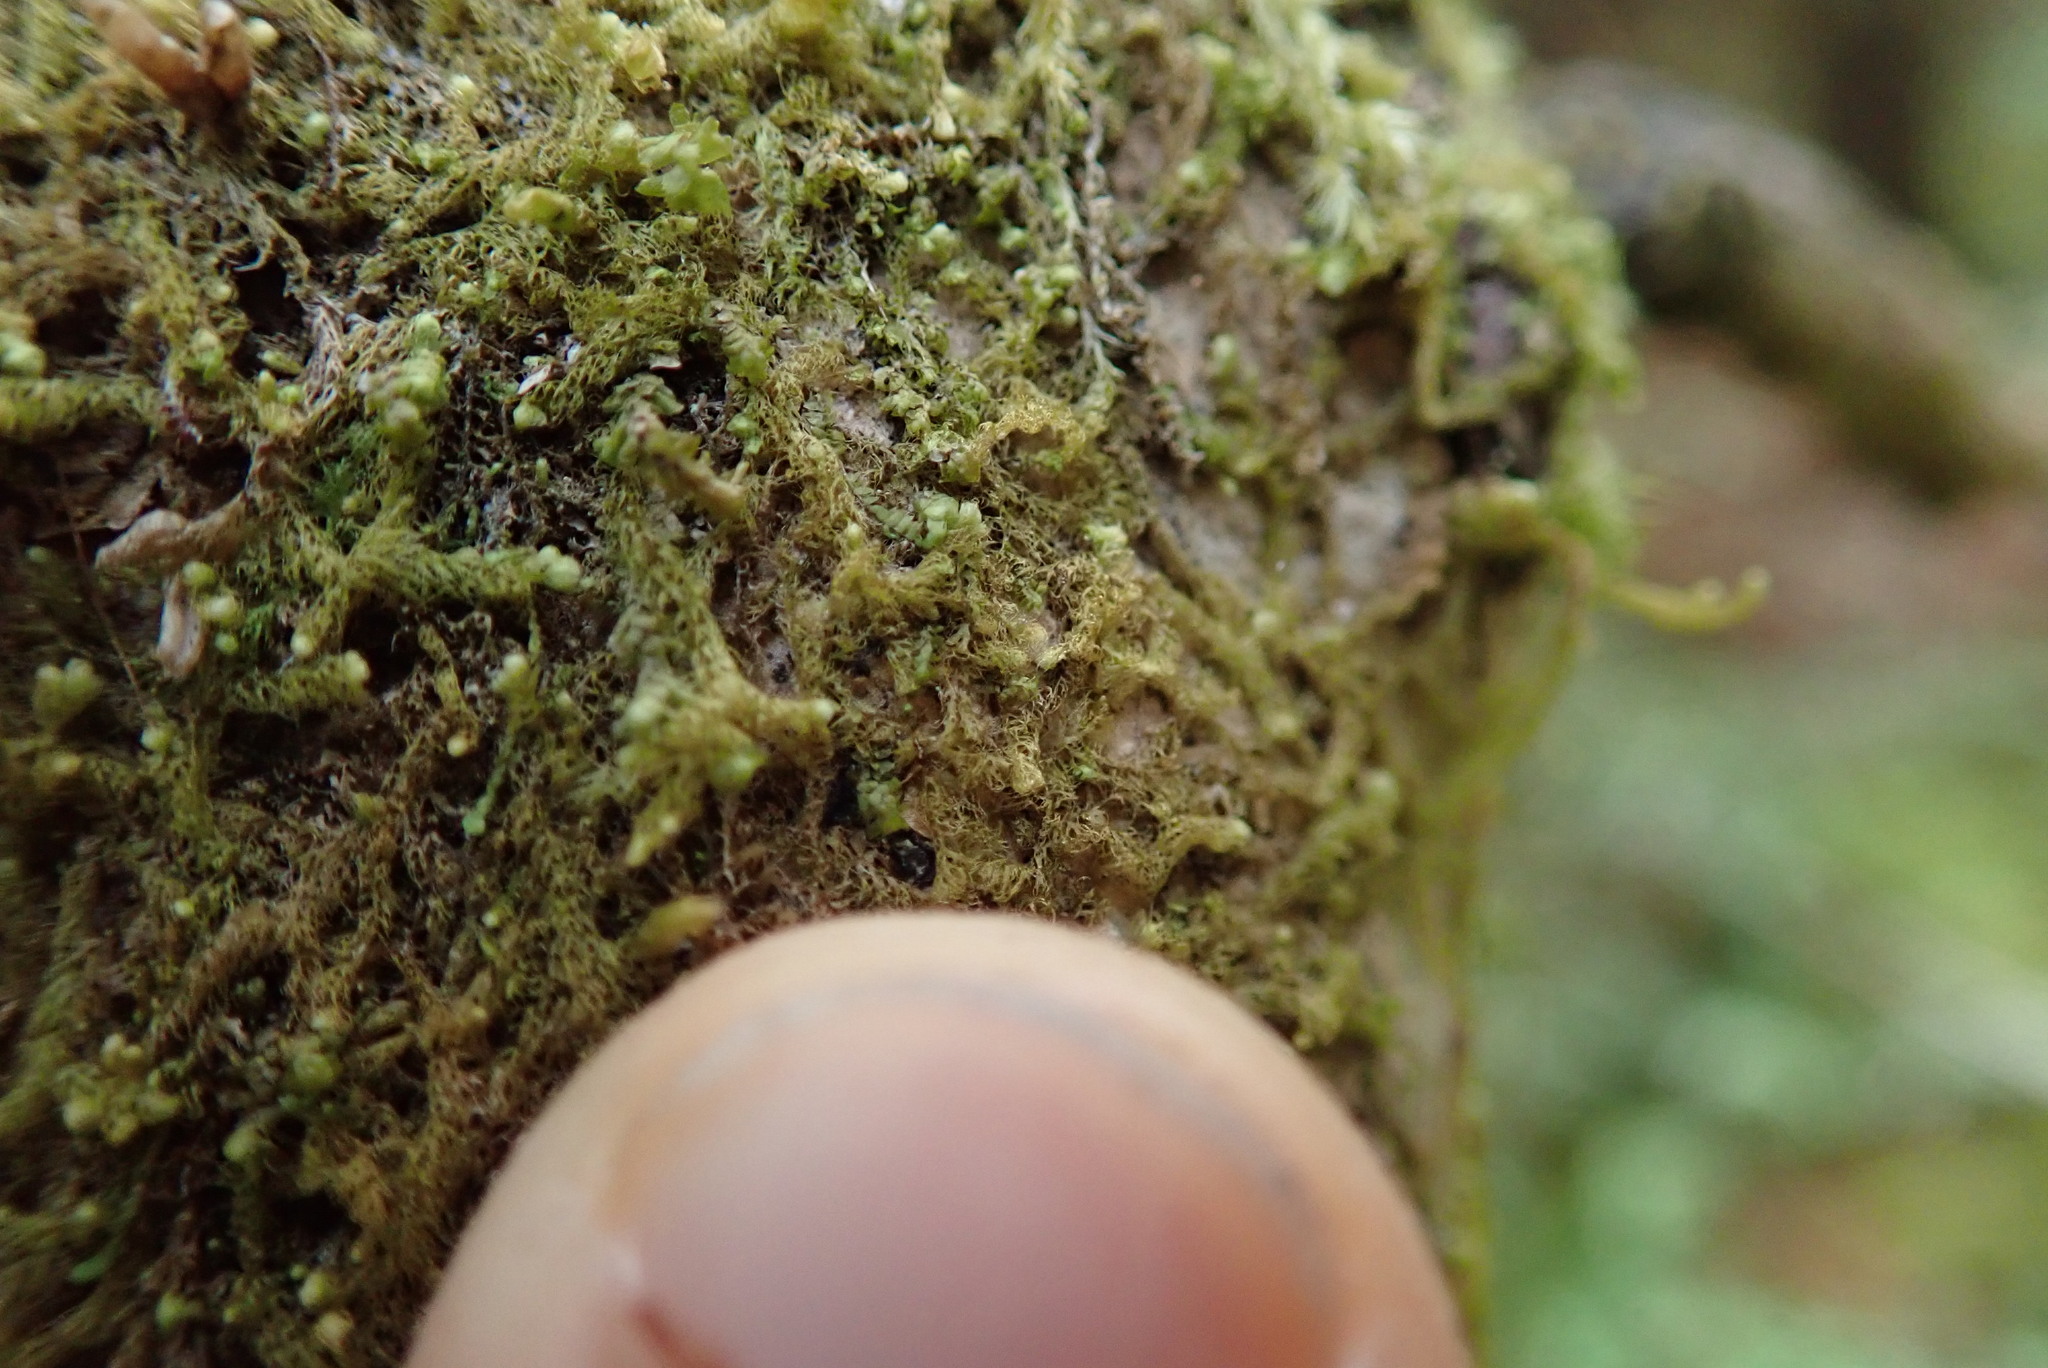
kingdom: Plantae
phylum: Marchantiophyta
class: Jungermanniopsida
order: Ptilidiales
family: Ptilidiaceae
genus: Ptilidium
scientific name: Ptilidium californicum
